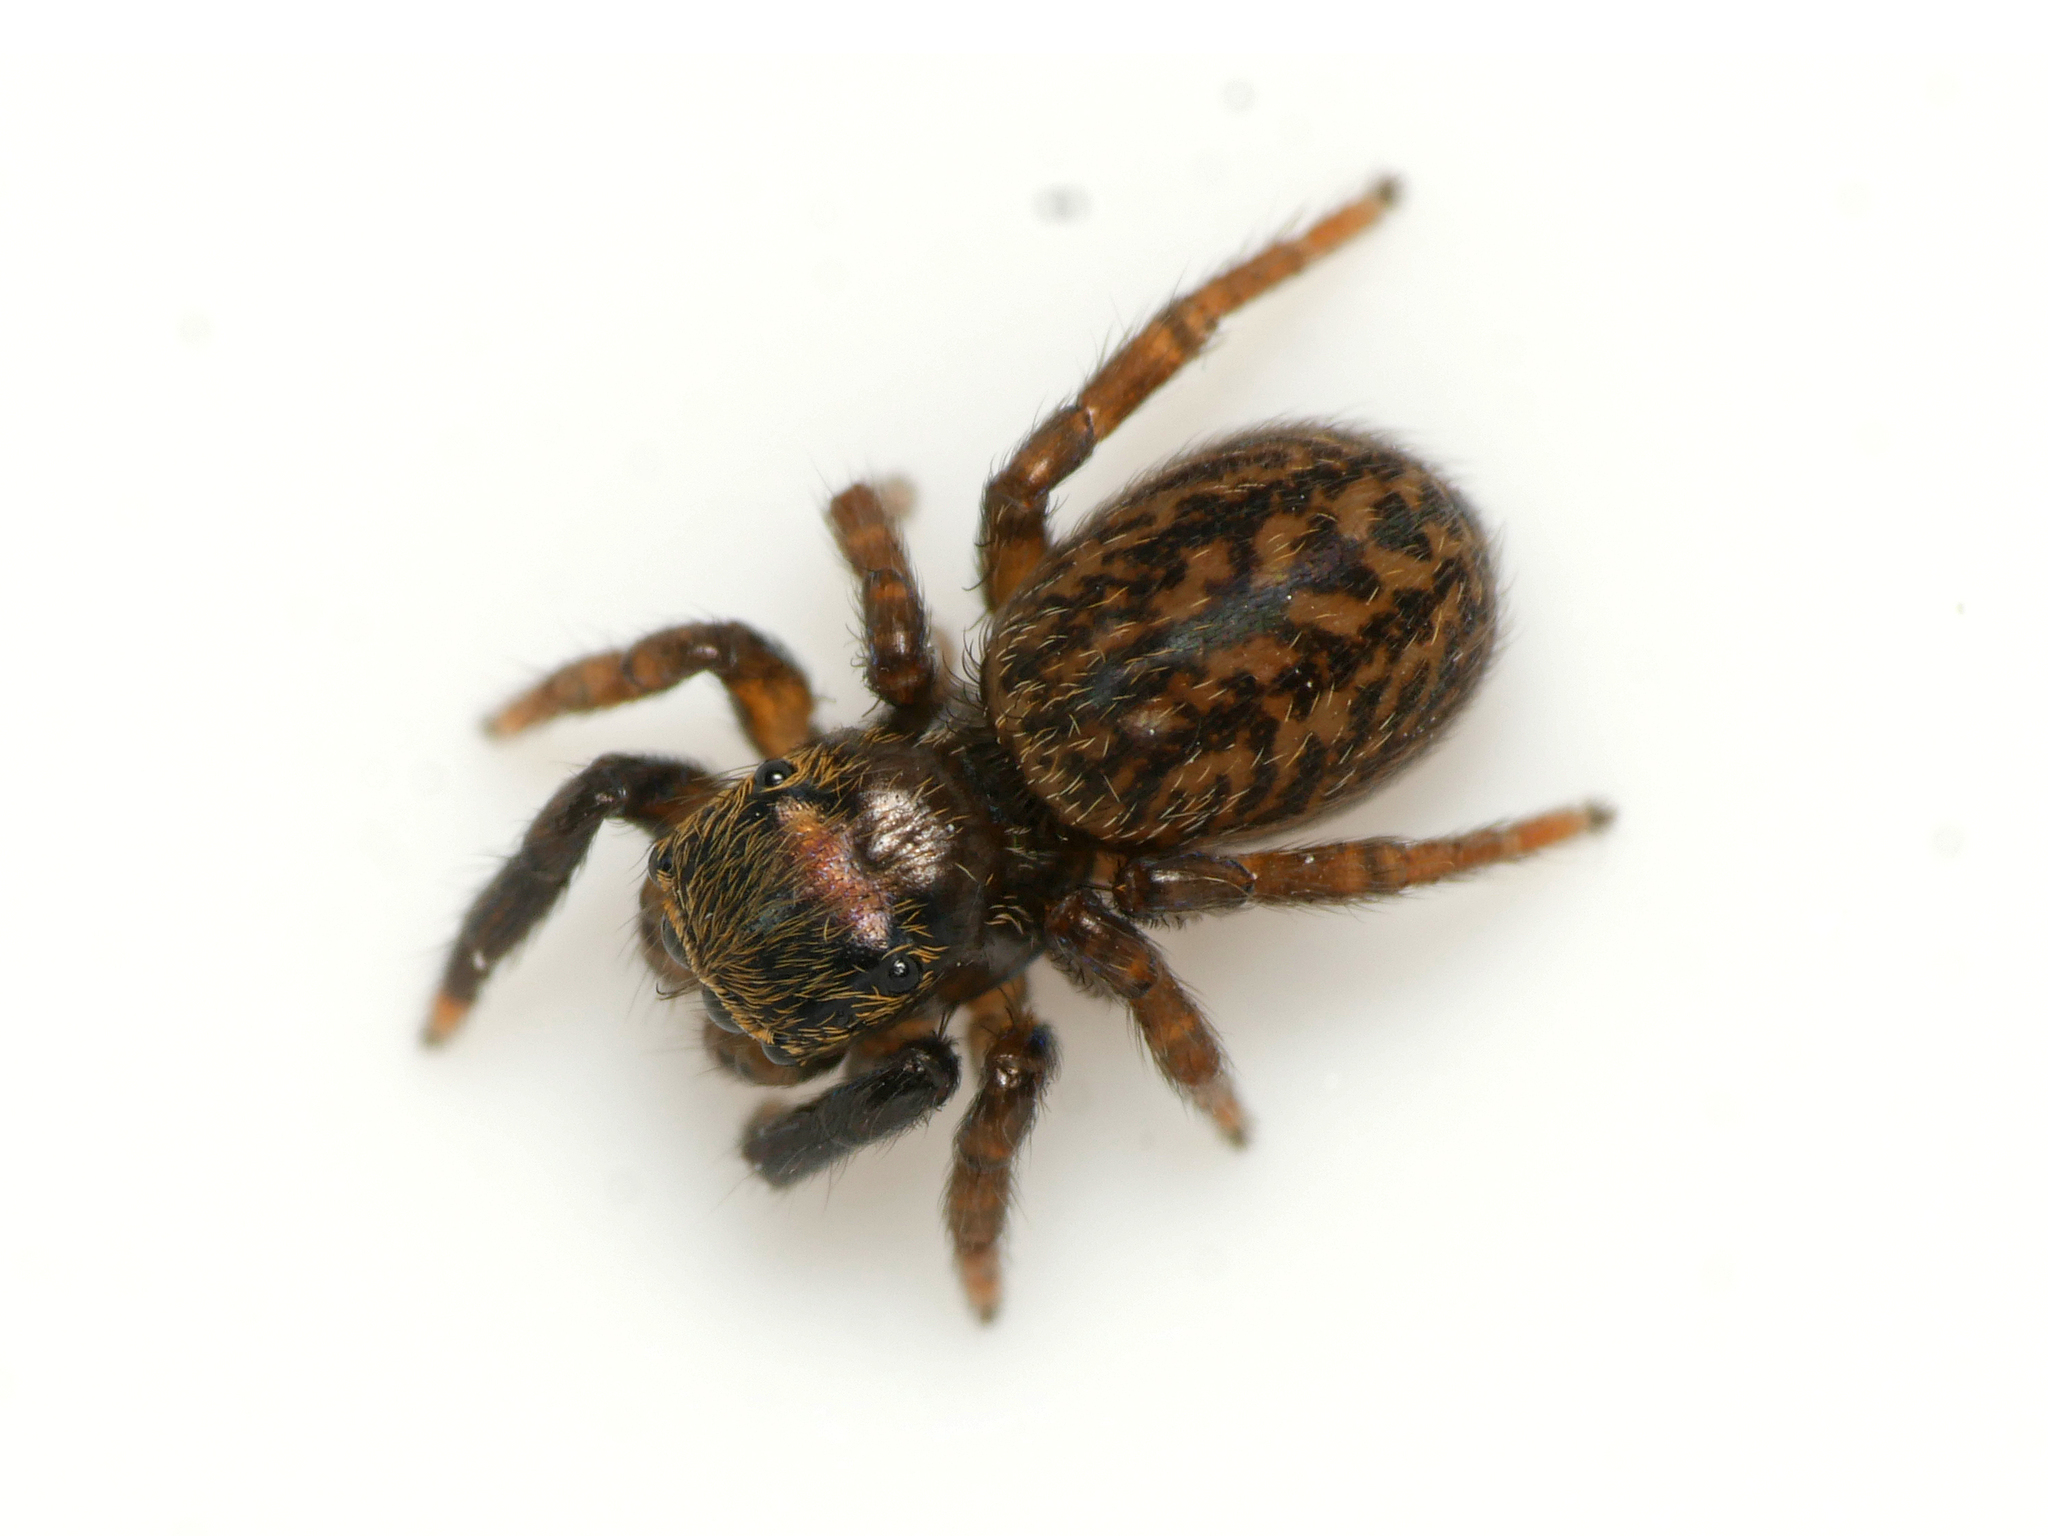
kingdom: Animalia
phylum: Arthropoda
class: Arachnida
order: Araneae
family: Salticidae
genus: Euophrys
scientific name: Euophrys frontalis
